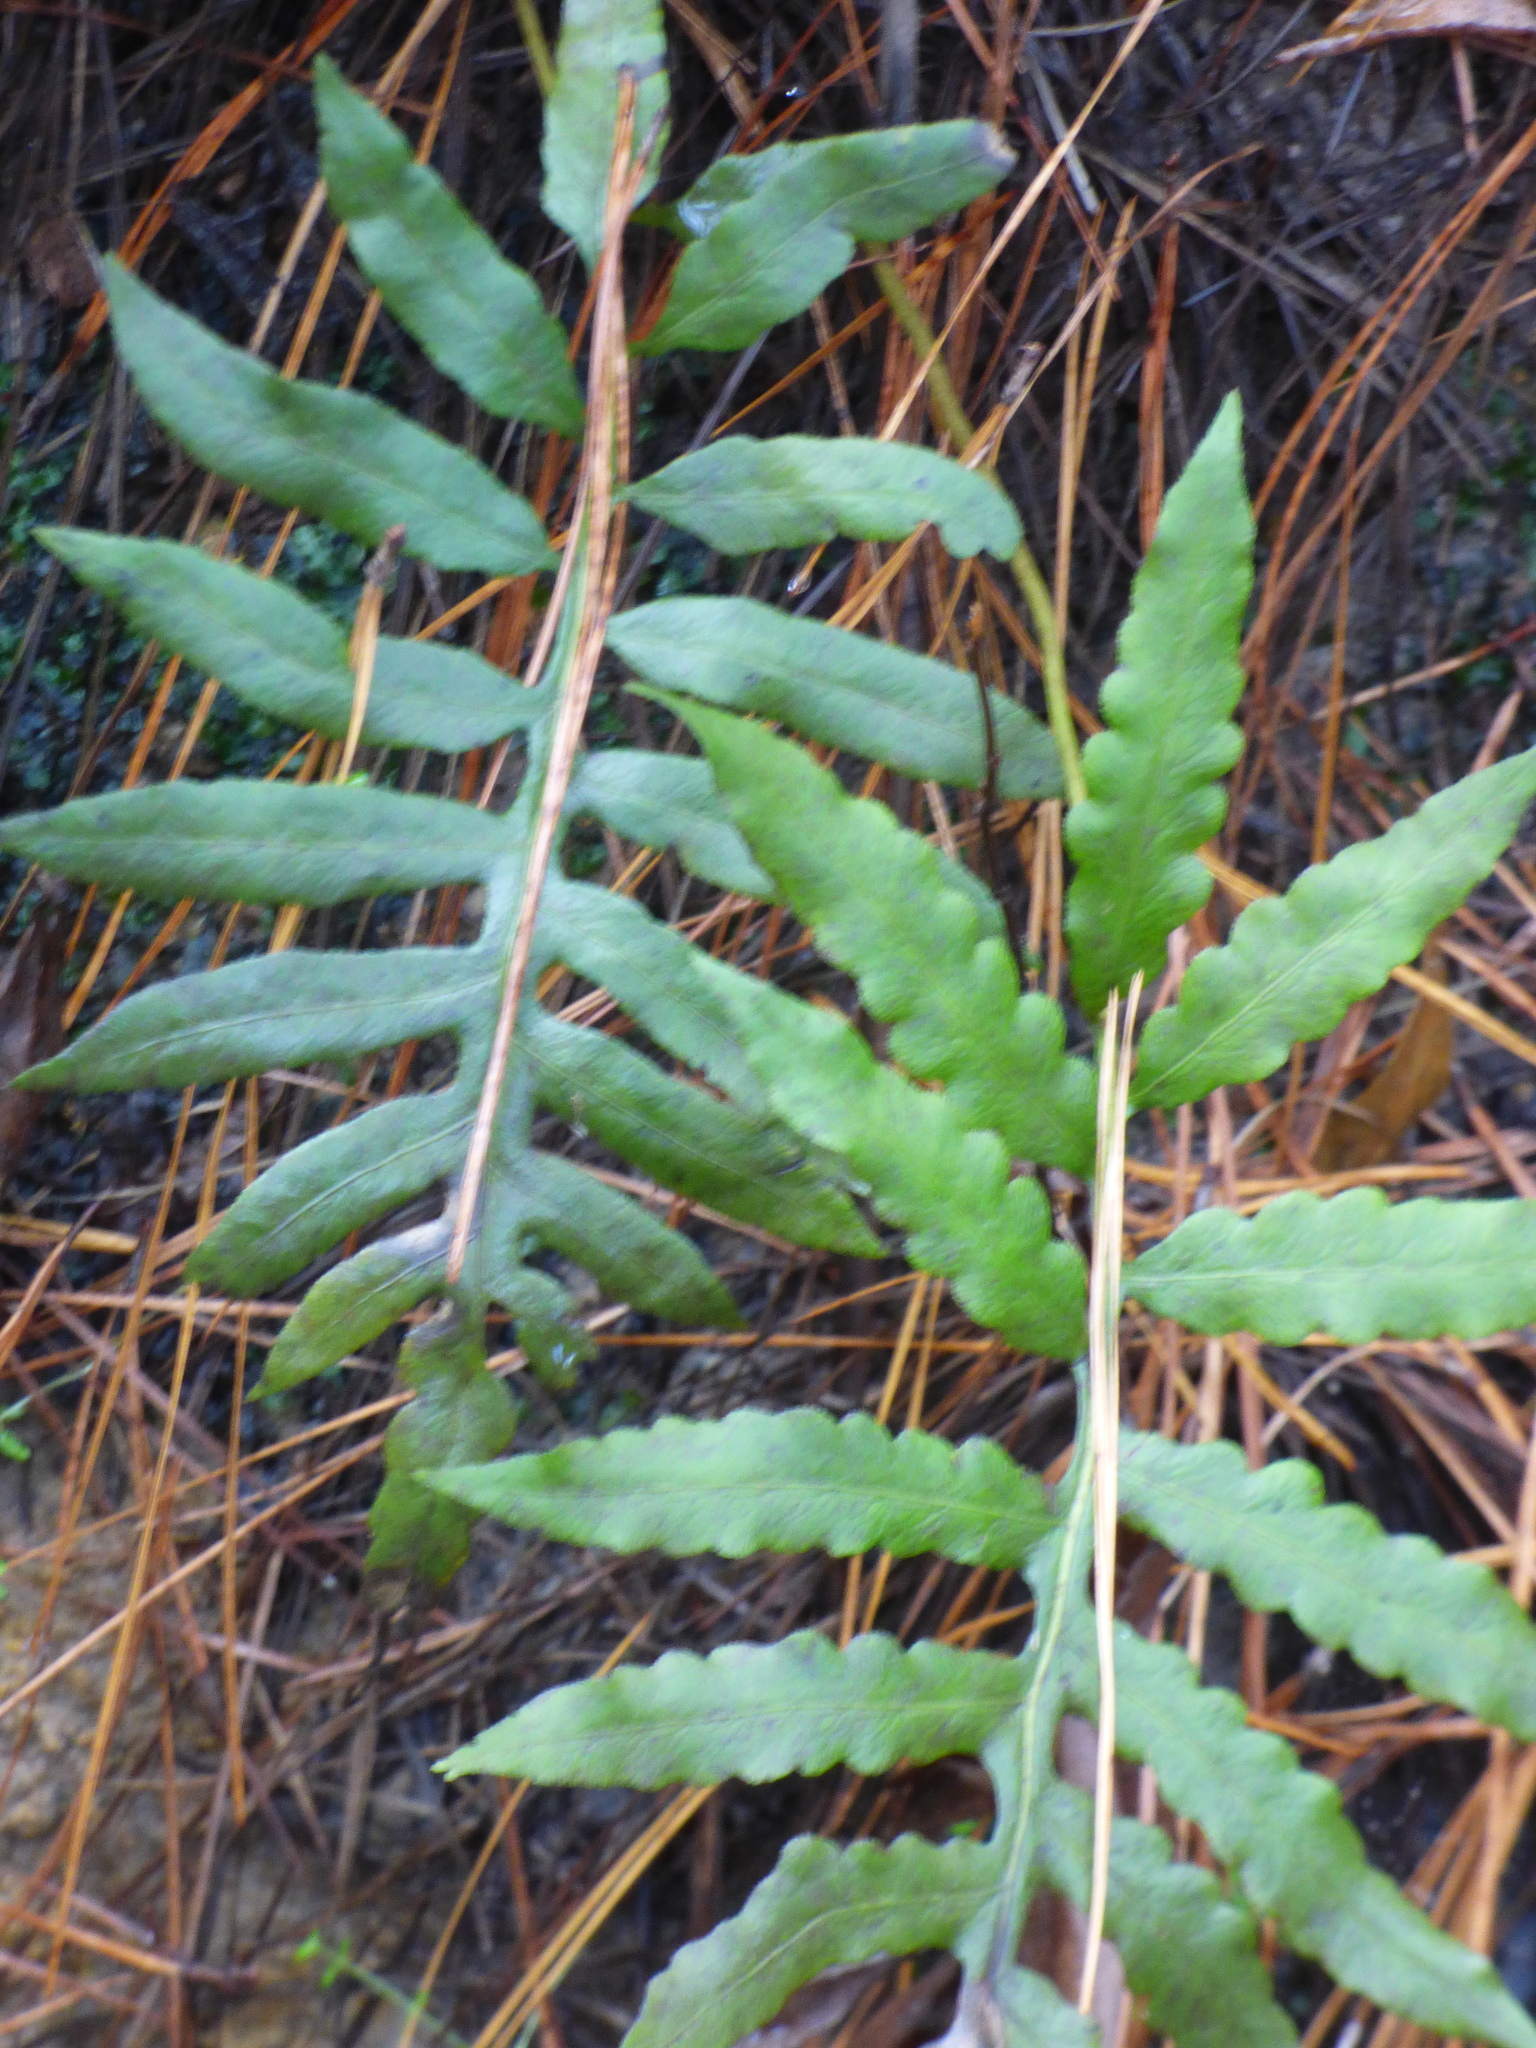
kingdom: Plantae
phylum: Tracheophyta
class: Polypodiopsida
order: Polypodiales
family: Blechnaceae
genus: Lorinseria
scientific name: Lorinseria areolata
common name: Dwarf chain fern
